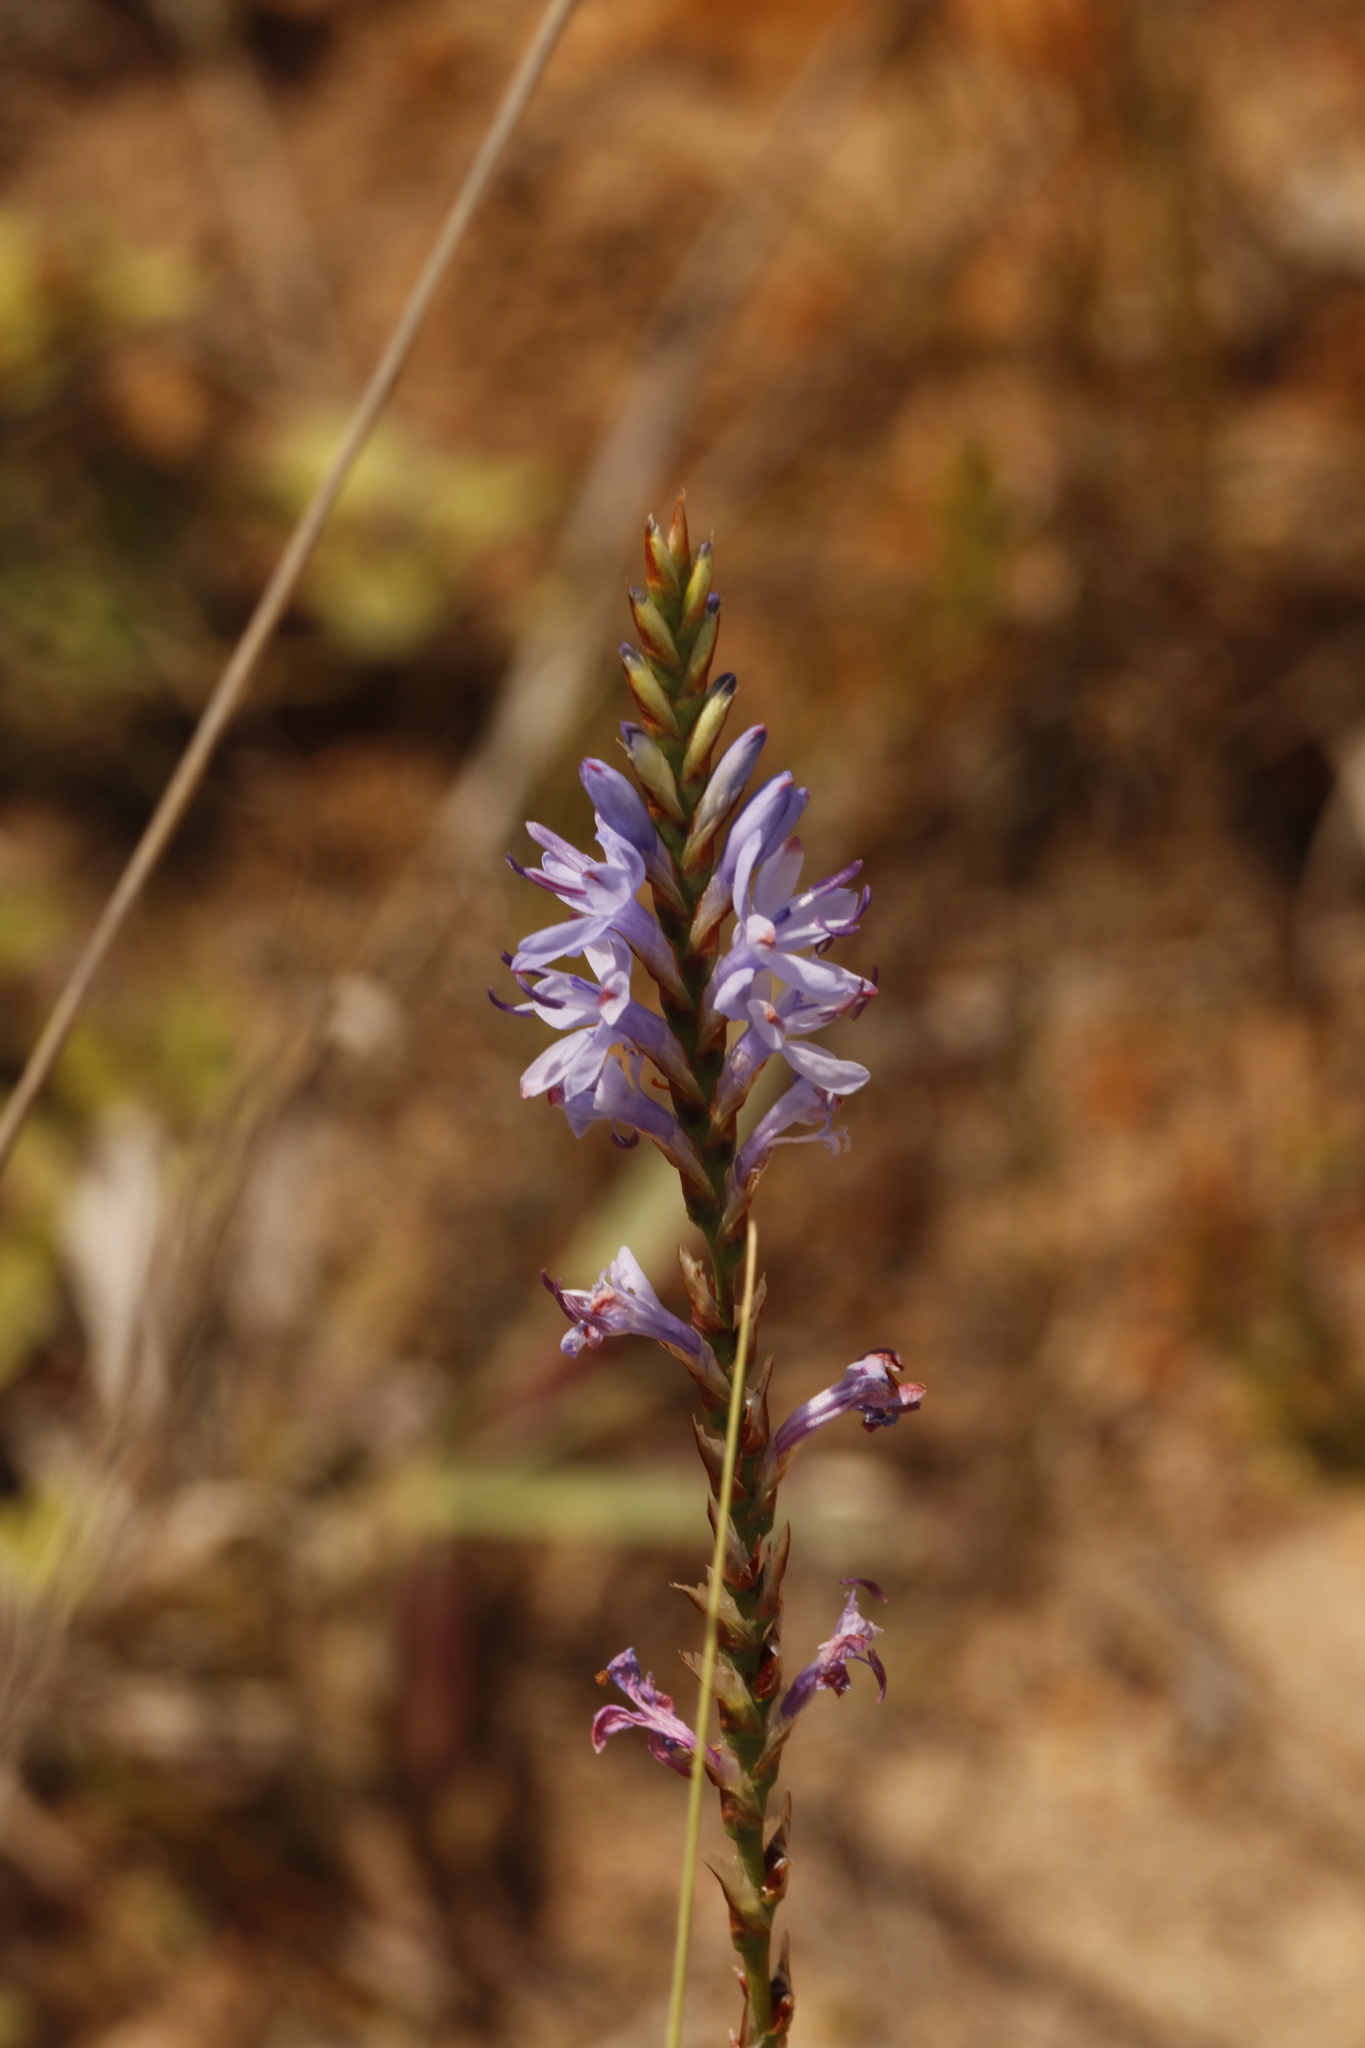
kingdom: Plantae
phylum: Tracheophyta
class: Liliopsida
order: Asparagales
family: Iridaceae
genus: Micranthus
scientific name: Micranthus plantagineus
